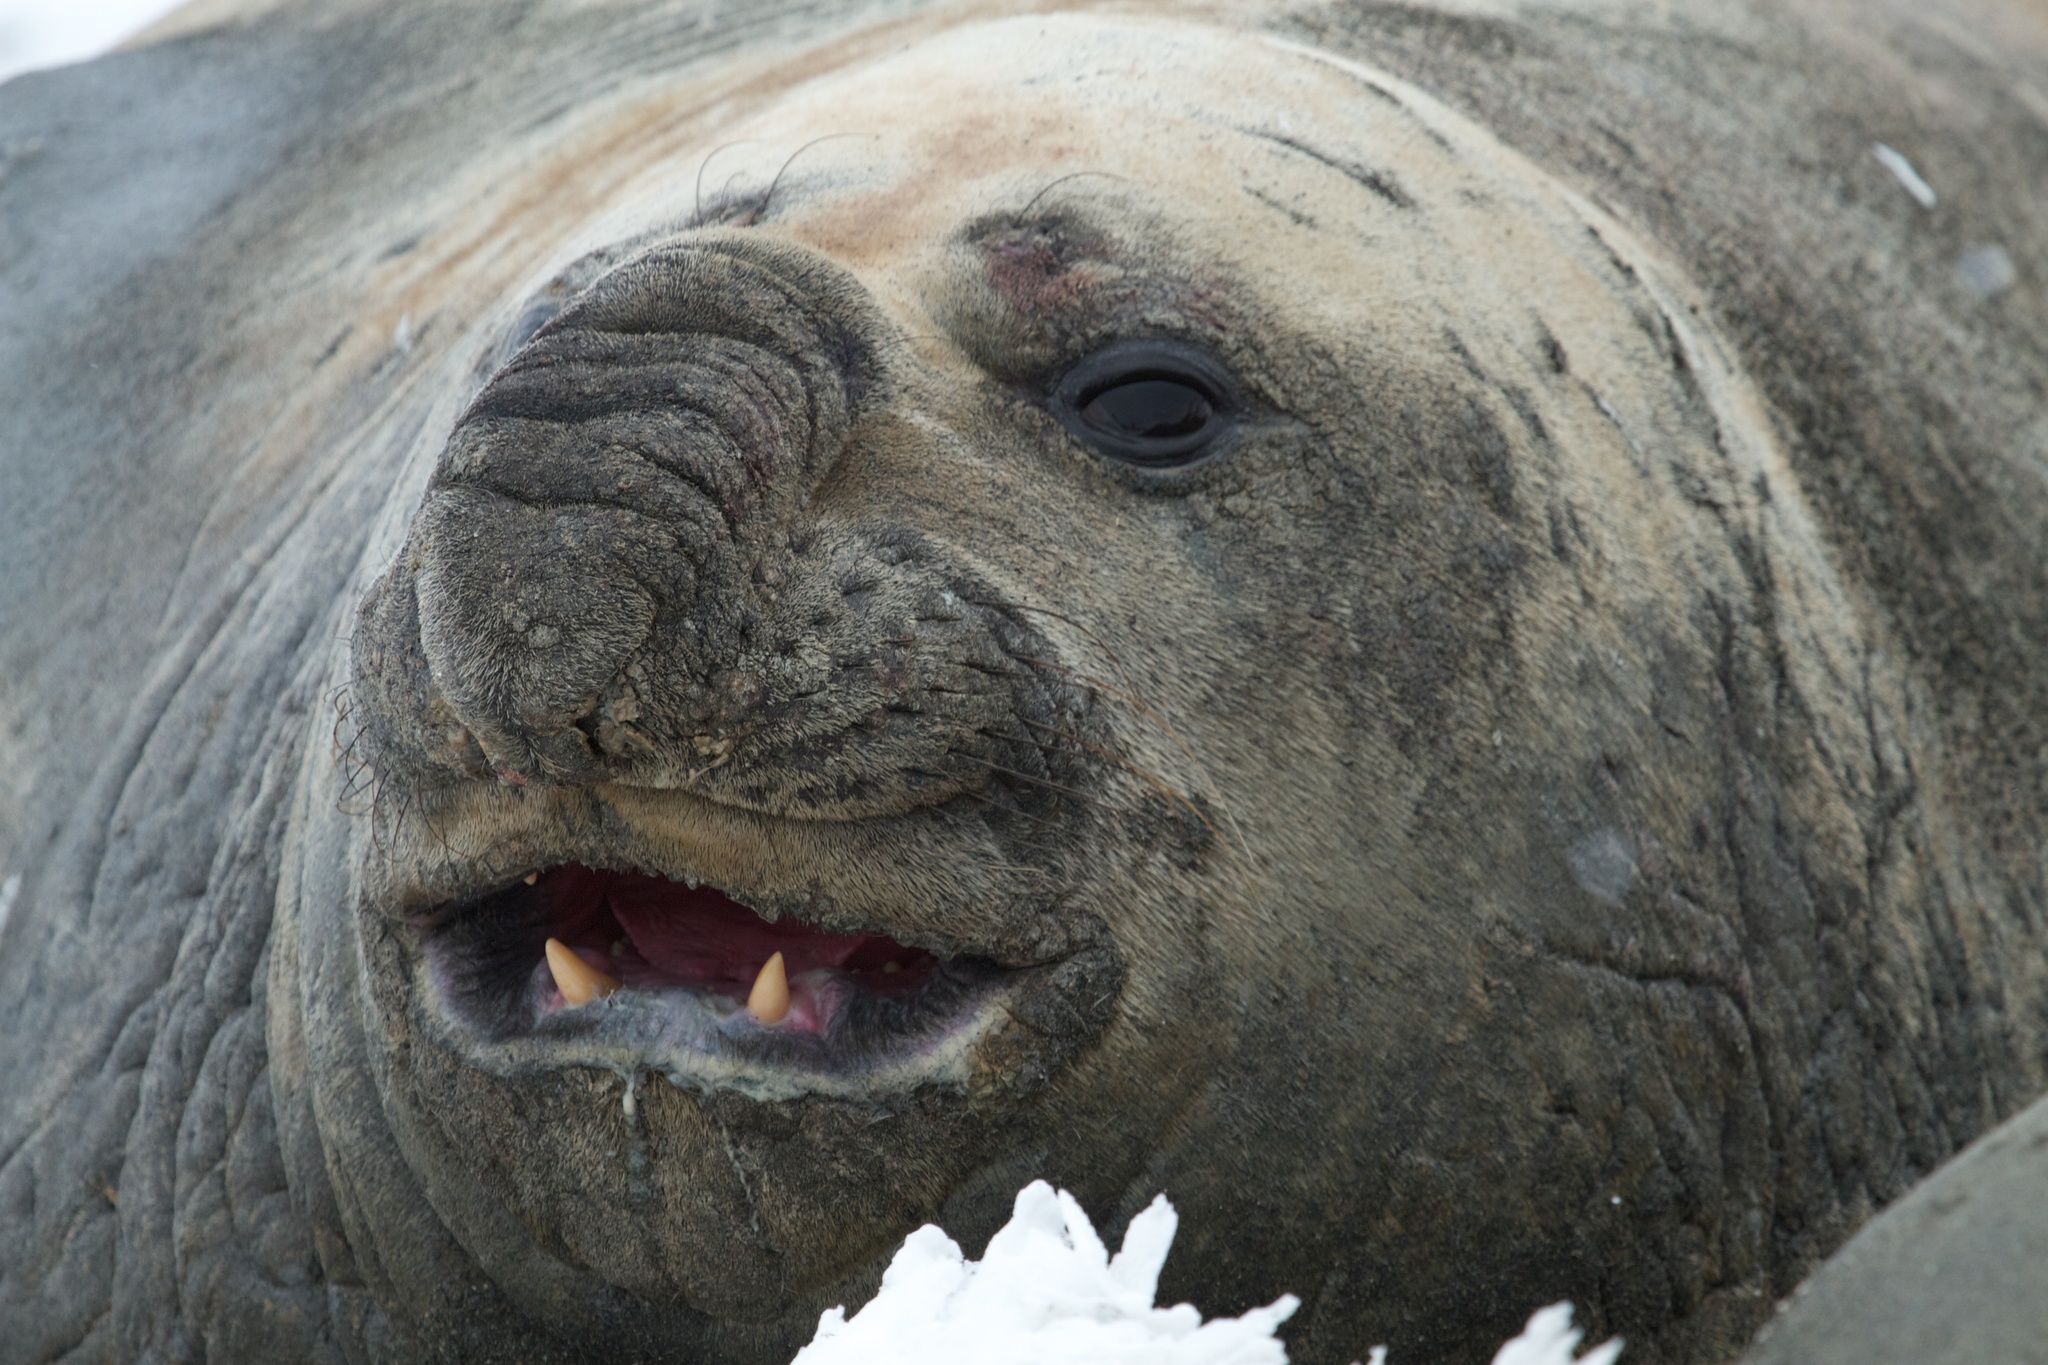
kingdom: Animalia
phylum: Chordata
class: Mammalia
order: Carnivora
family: Phocidae
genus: Mirounga
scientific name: Mirounga leonina
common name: Southern elephant seal
